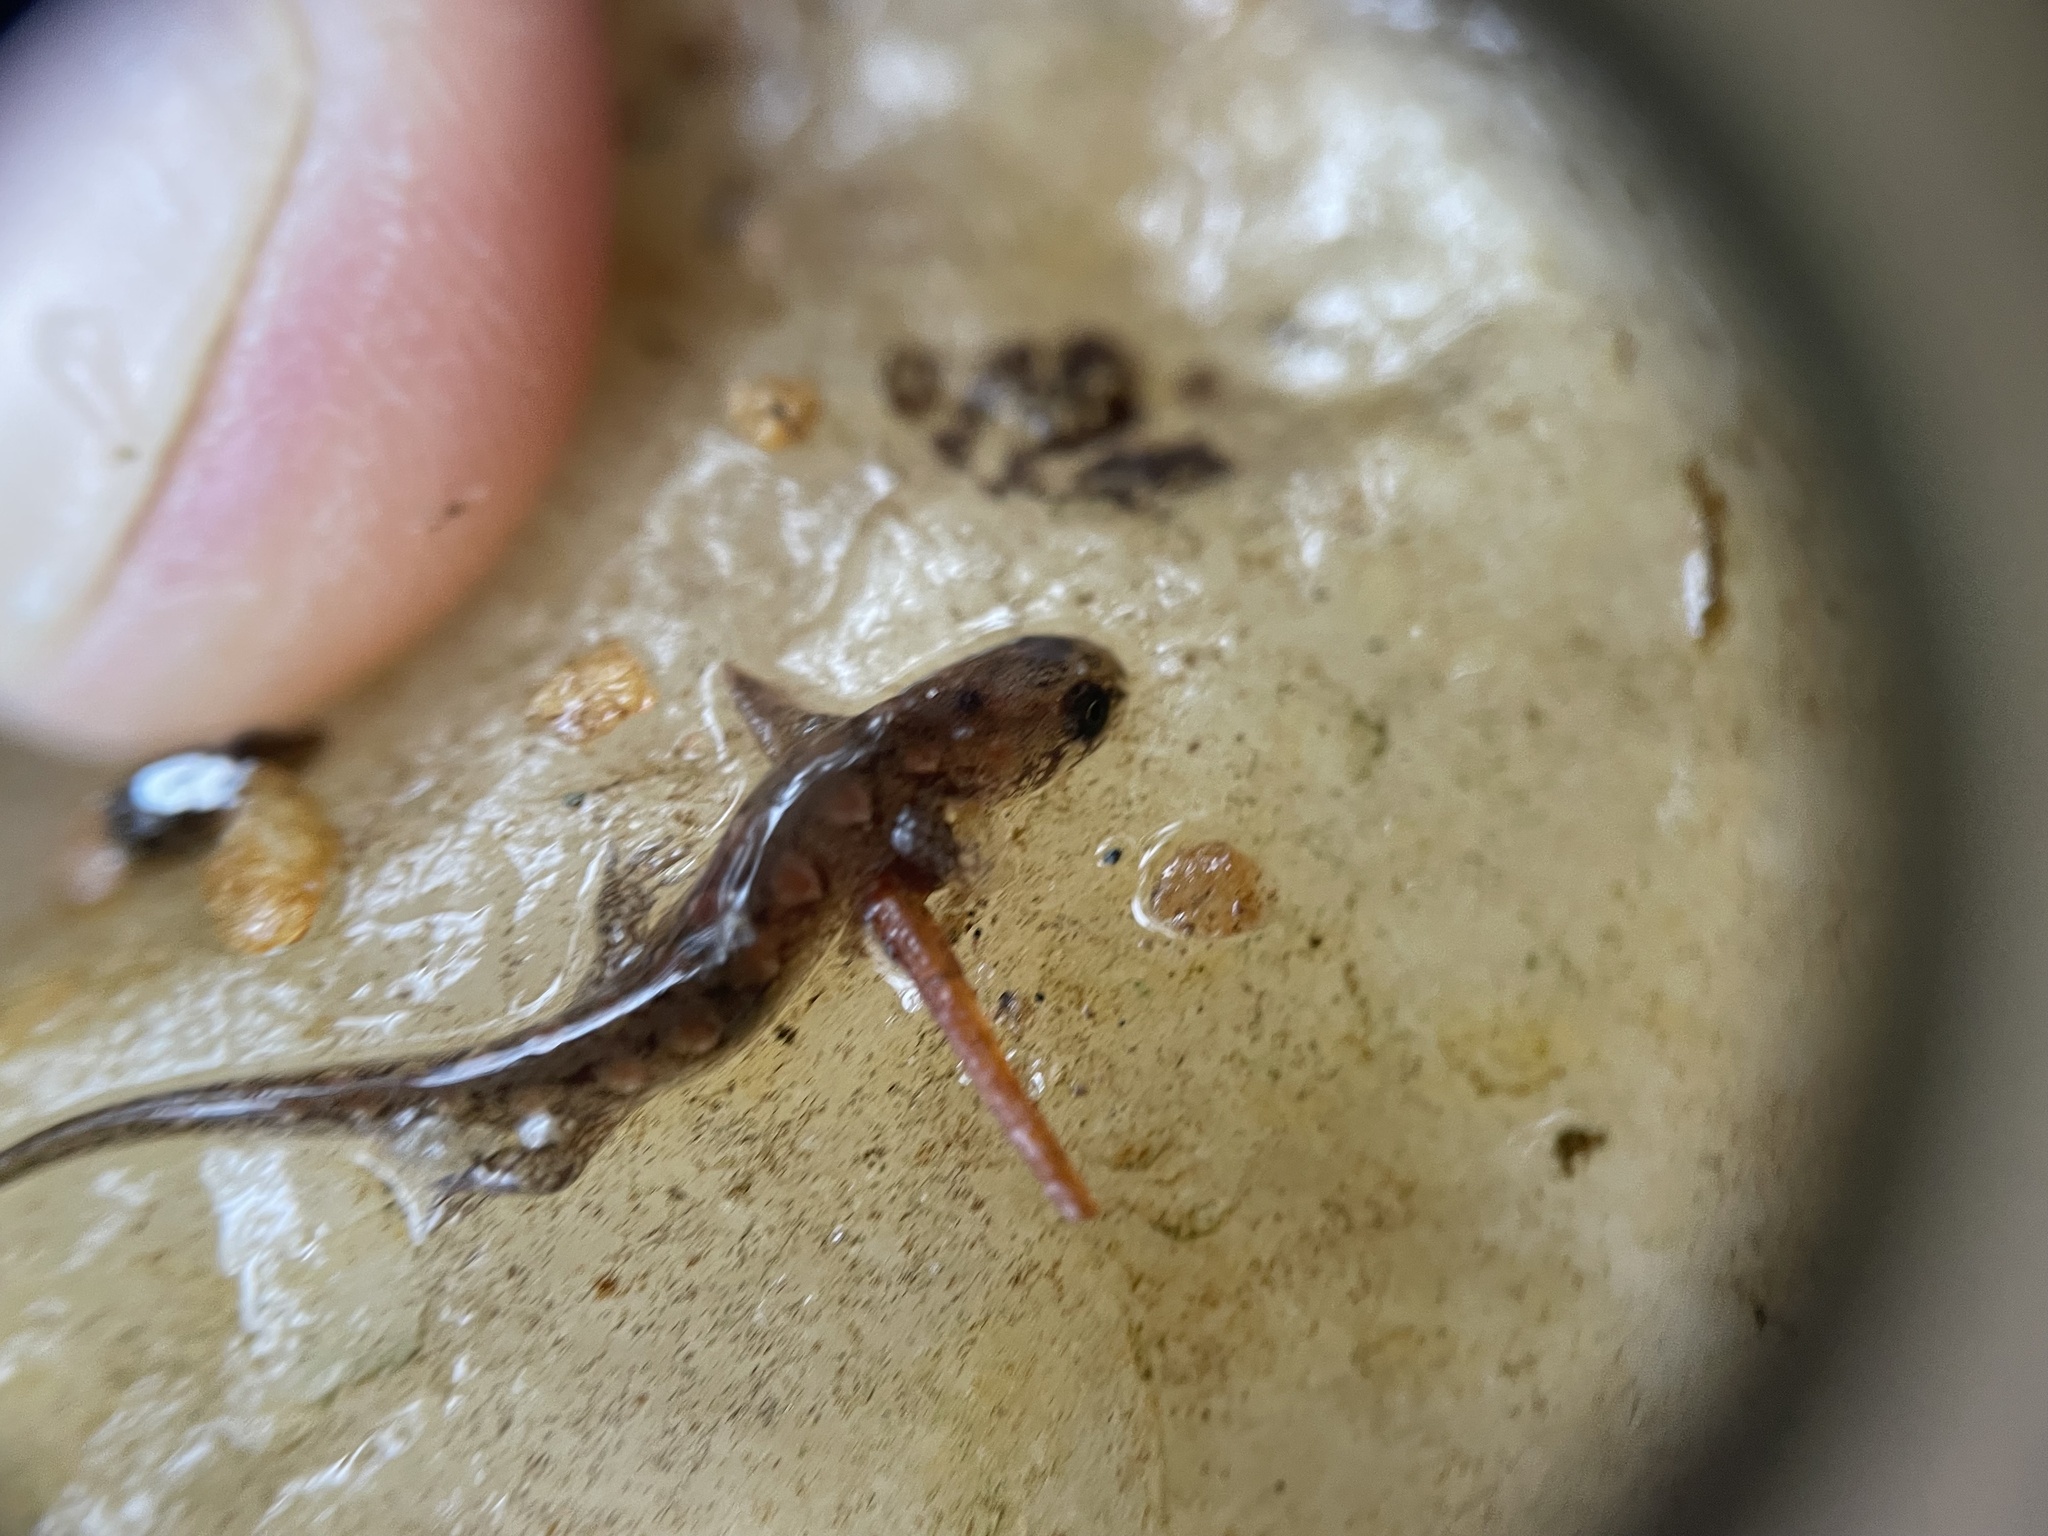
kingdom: Animalia
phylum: Chordata
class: Amphibia
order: Caudata
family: Plethodontidae
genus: Desmognathus
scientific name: Desmognathus
